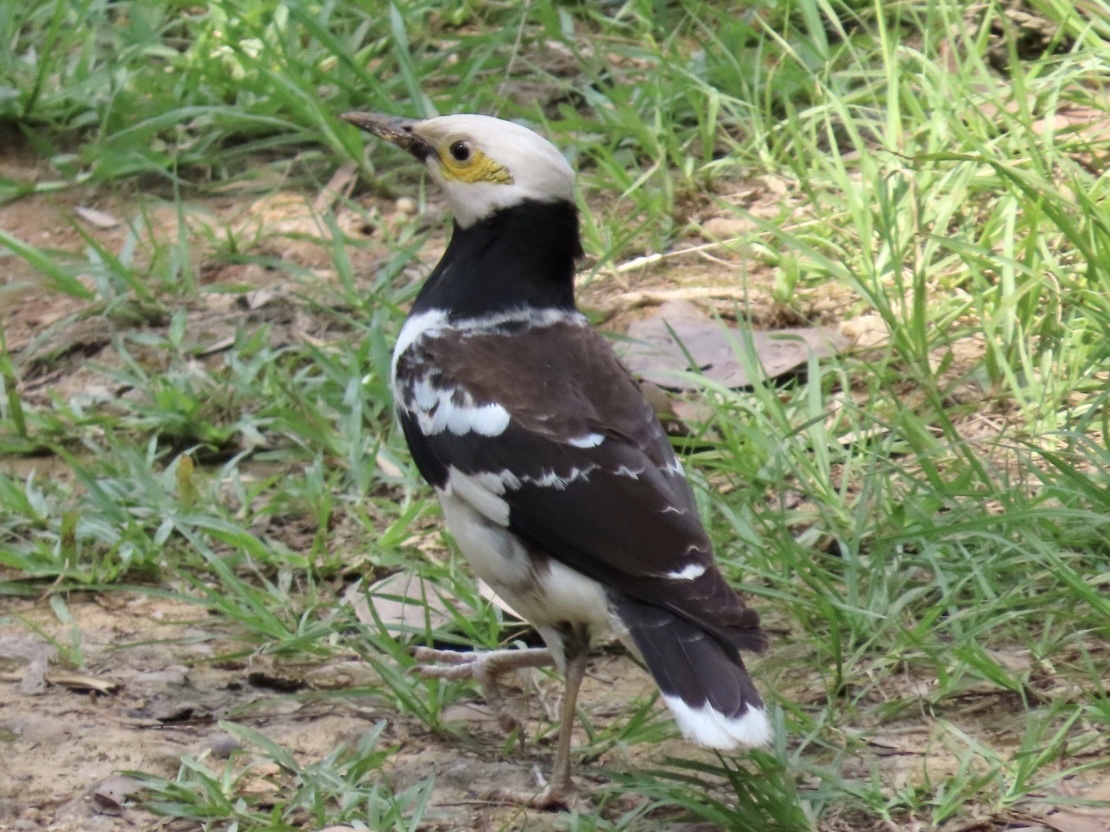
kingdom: Animalia
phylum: Chordata
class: Aves
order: Passeriformes
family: Sturnidae
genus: Gracupica
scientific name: Gracupica nigricollis
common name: Black-collared starling
